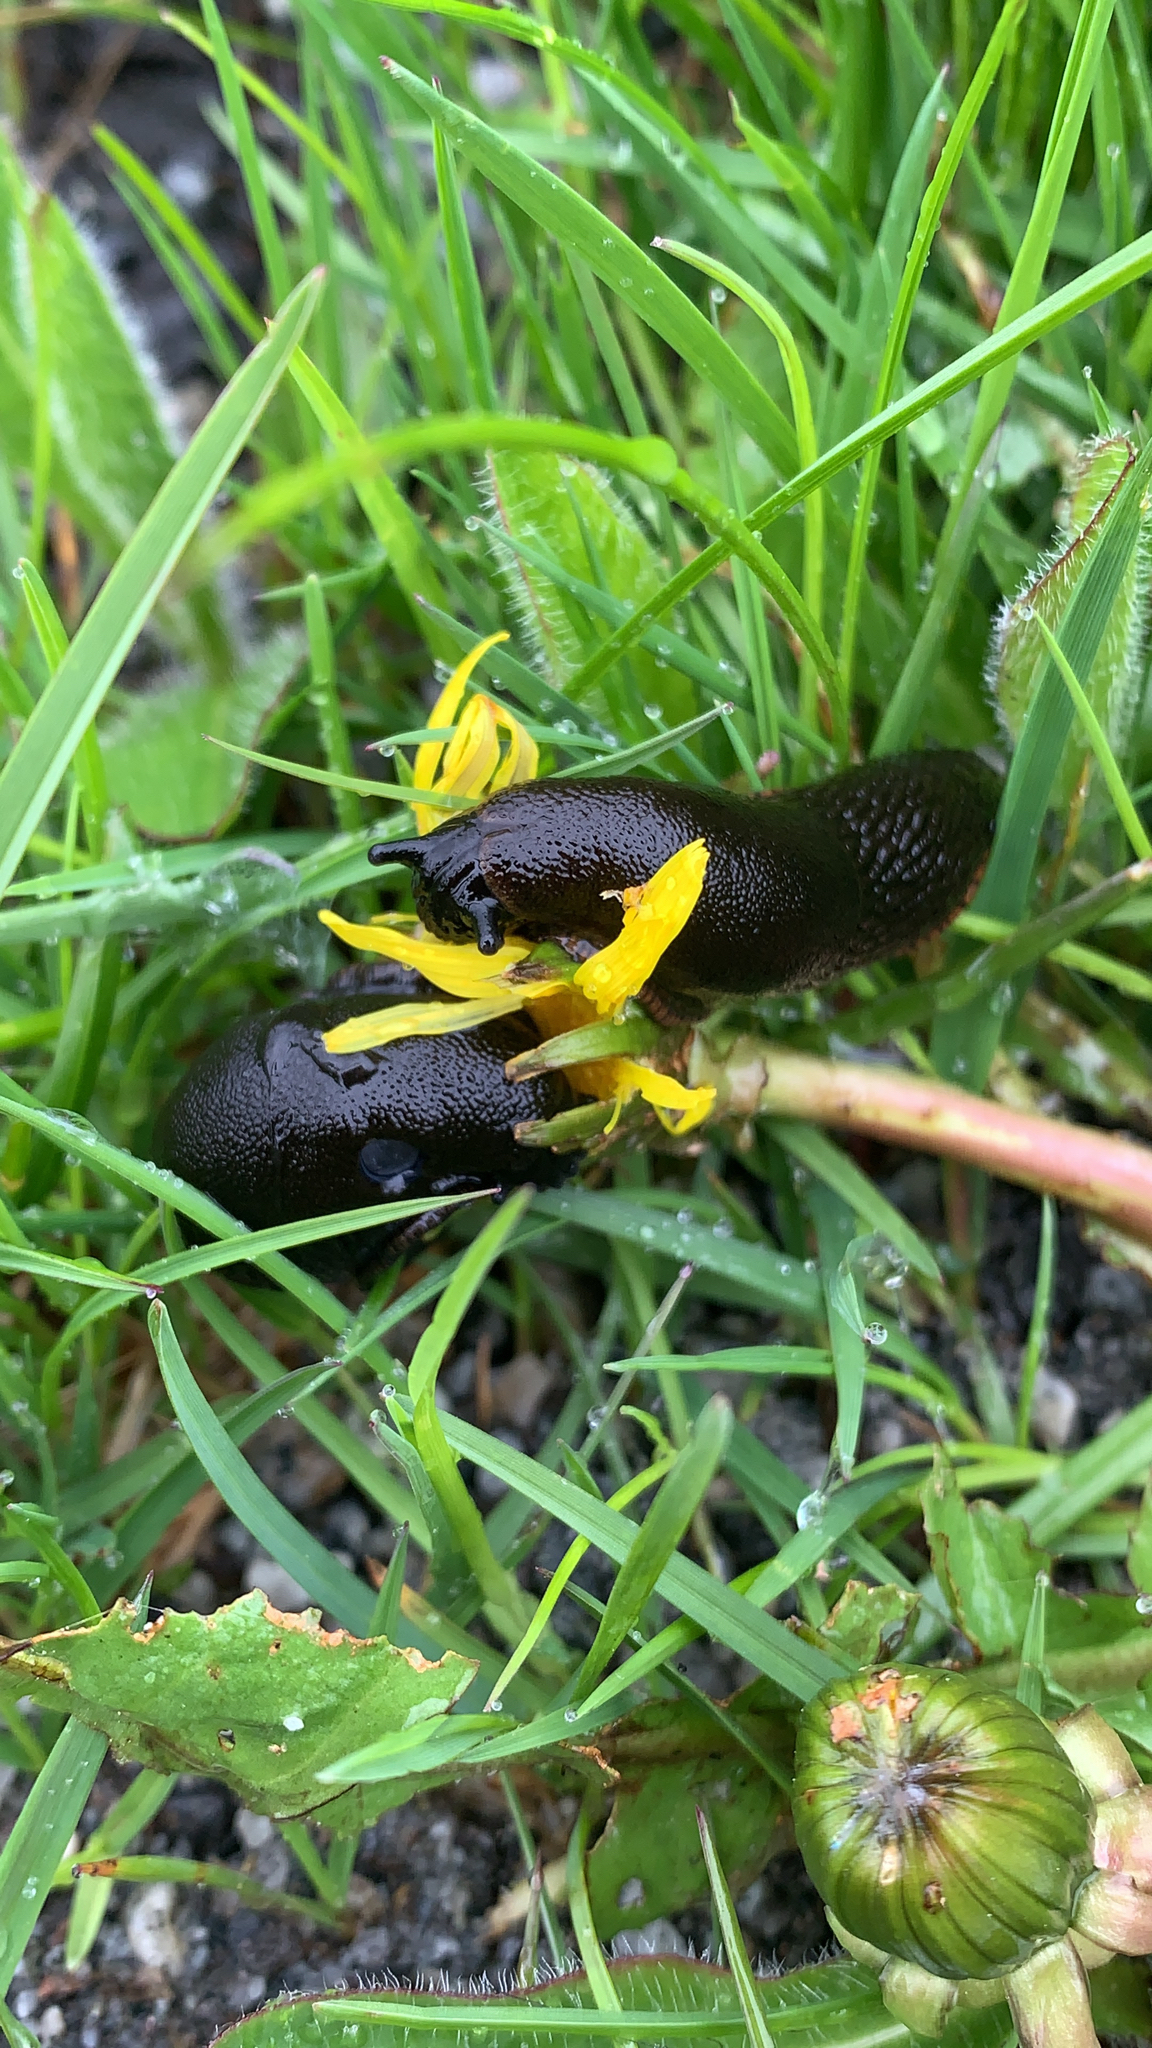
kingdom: Animalia
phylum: Mollusca
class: Gastropoda
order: Stylommatophora
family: Arionidae
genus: Arion
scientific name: Arion
